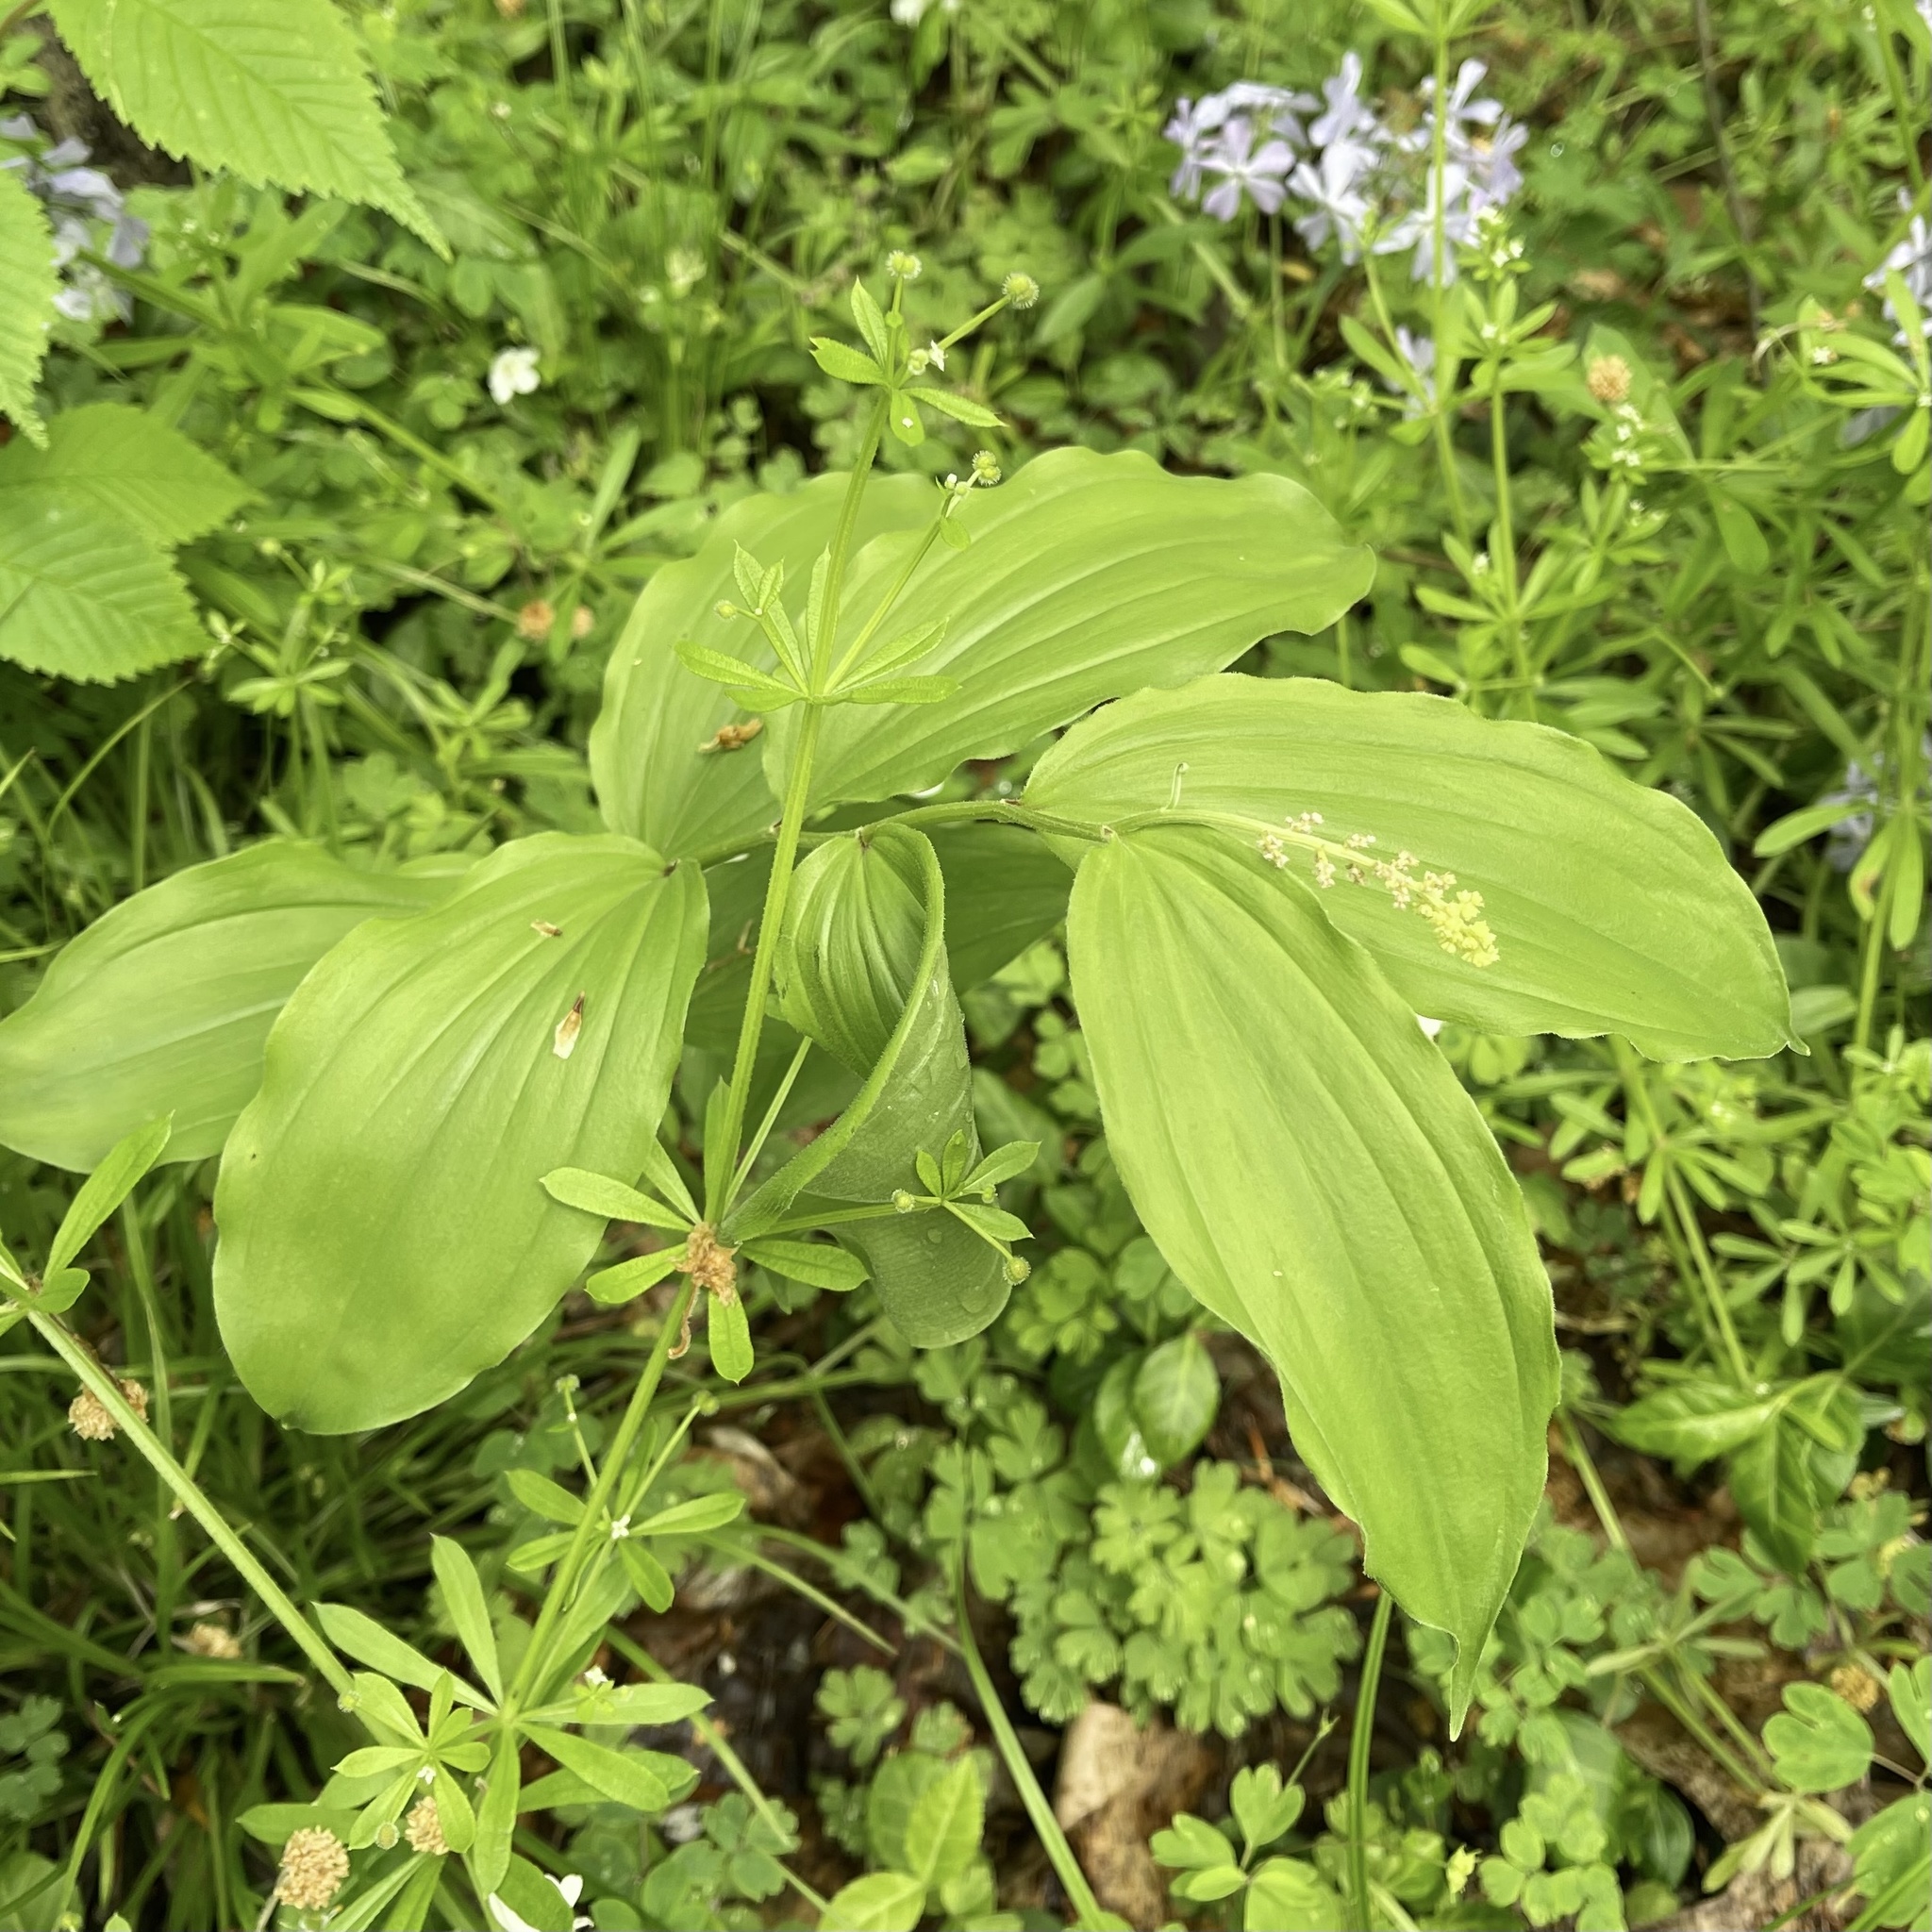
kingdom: Plantae
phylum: Tracheophyta
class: Liliopsida
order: Asparagales
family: Asparagaceae
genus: Maianthemum
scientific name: Maianthemum racemosum
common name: False spikenard
